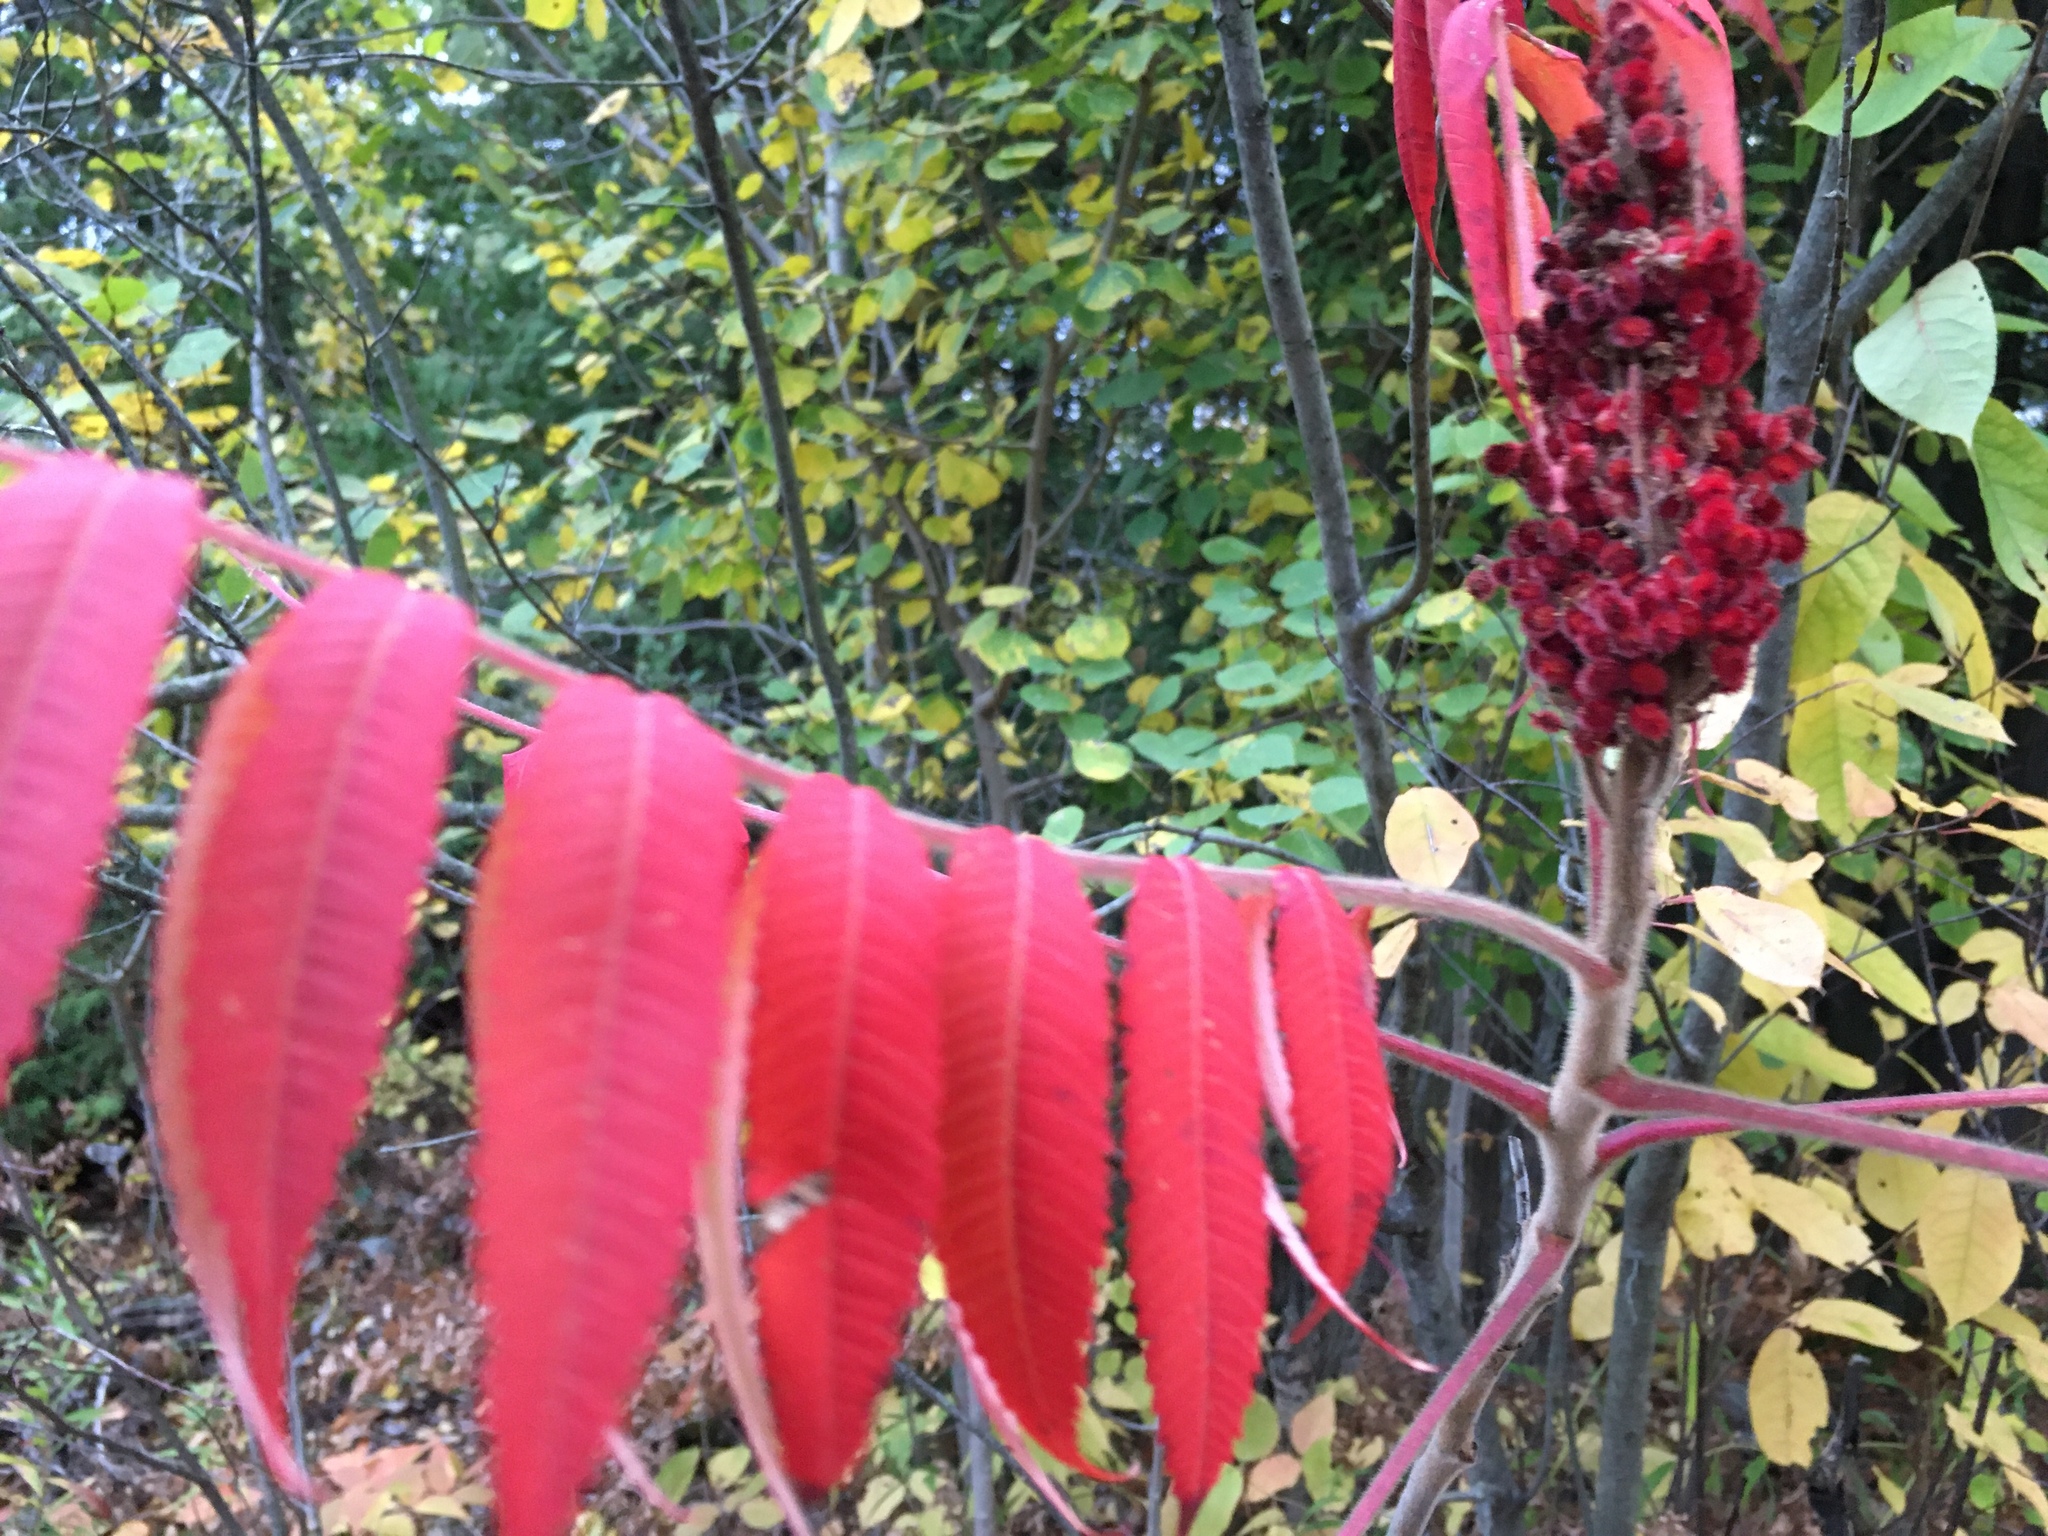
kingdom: Plantae
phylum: Tracheophyta
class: Magnoliopsida
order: Sapindales
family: Anacardiaceae
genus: Rhus
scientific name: Rhus typhina
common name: Staghorn sumac
